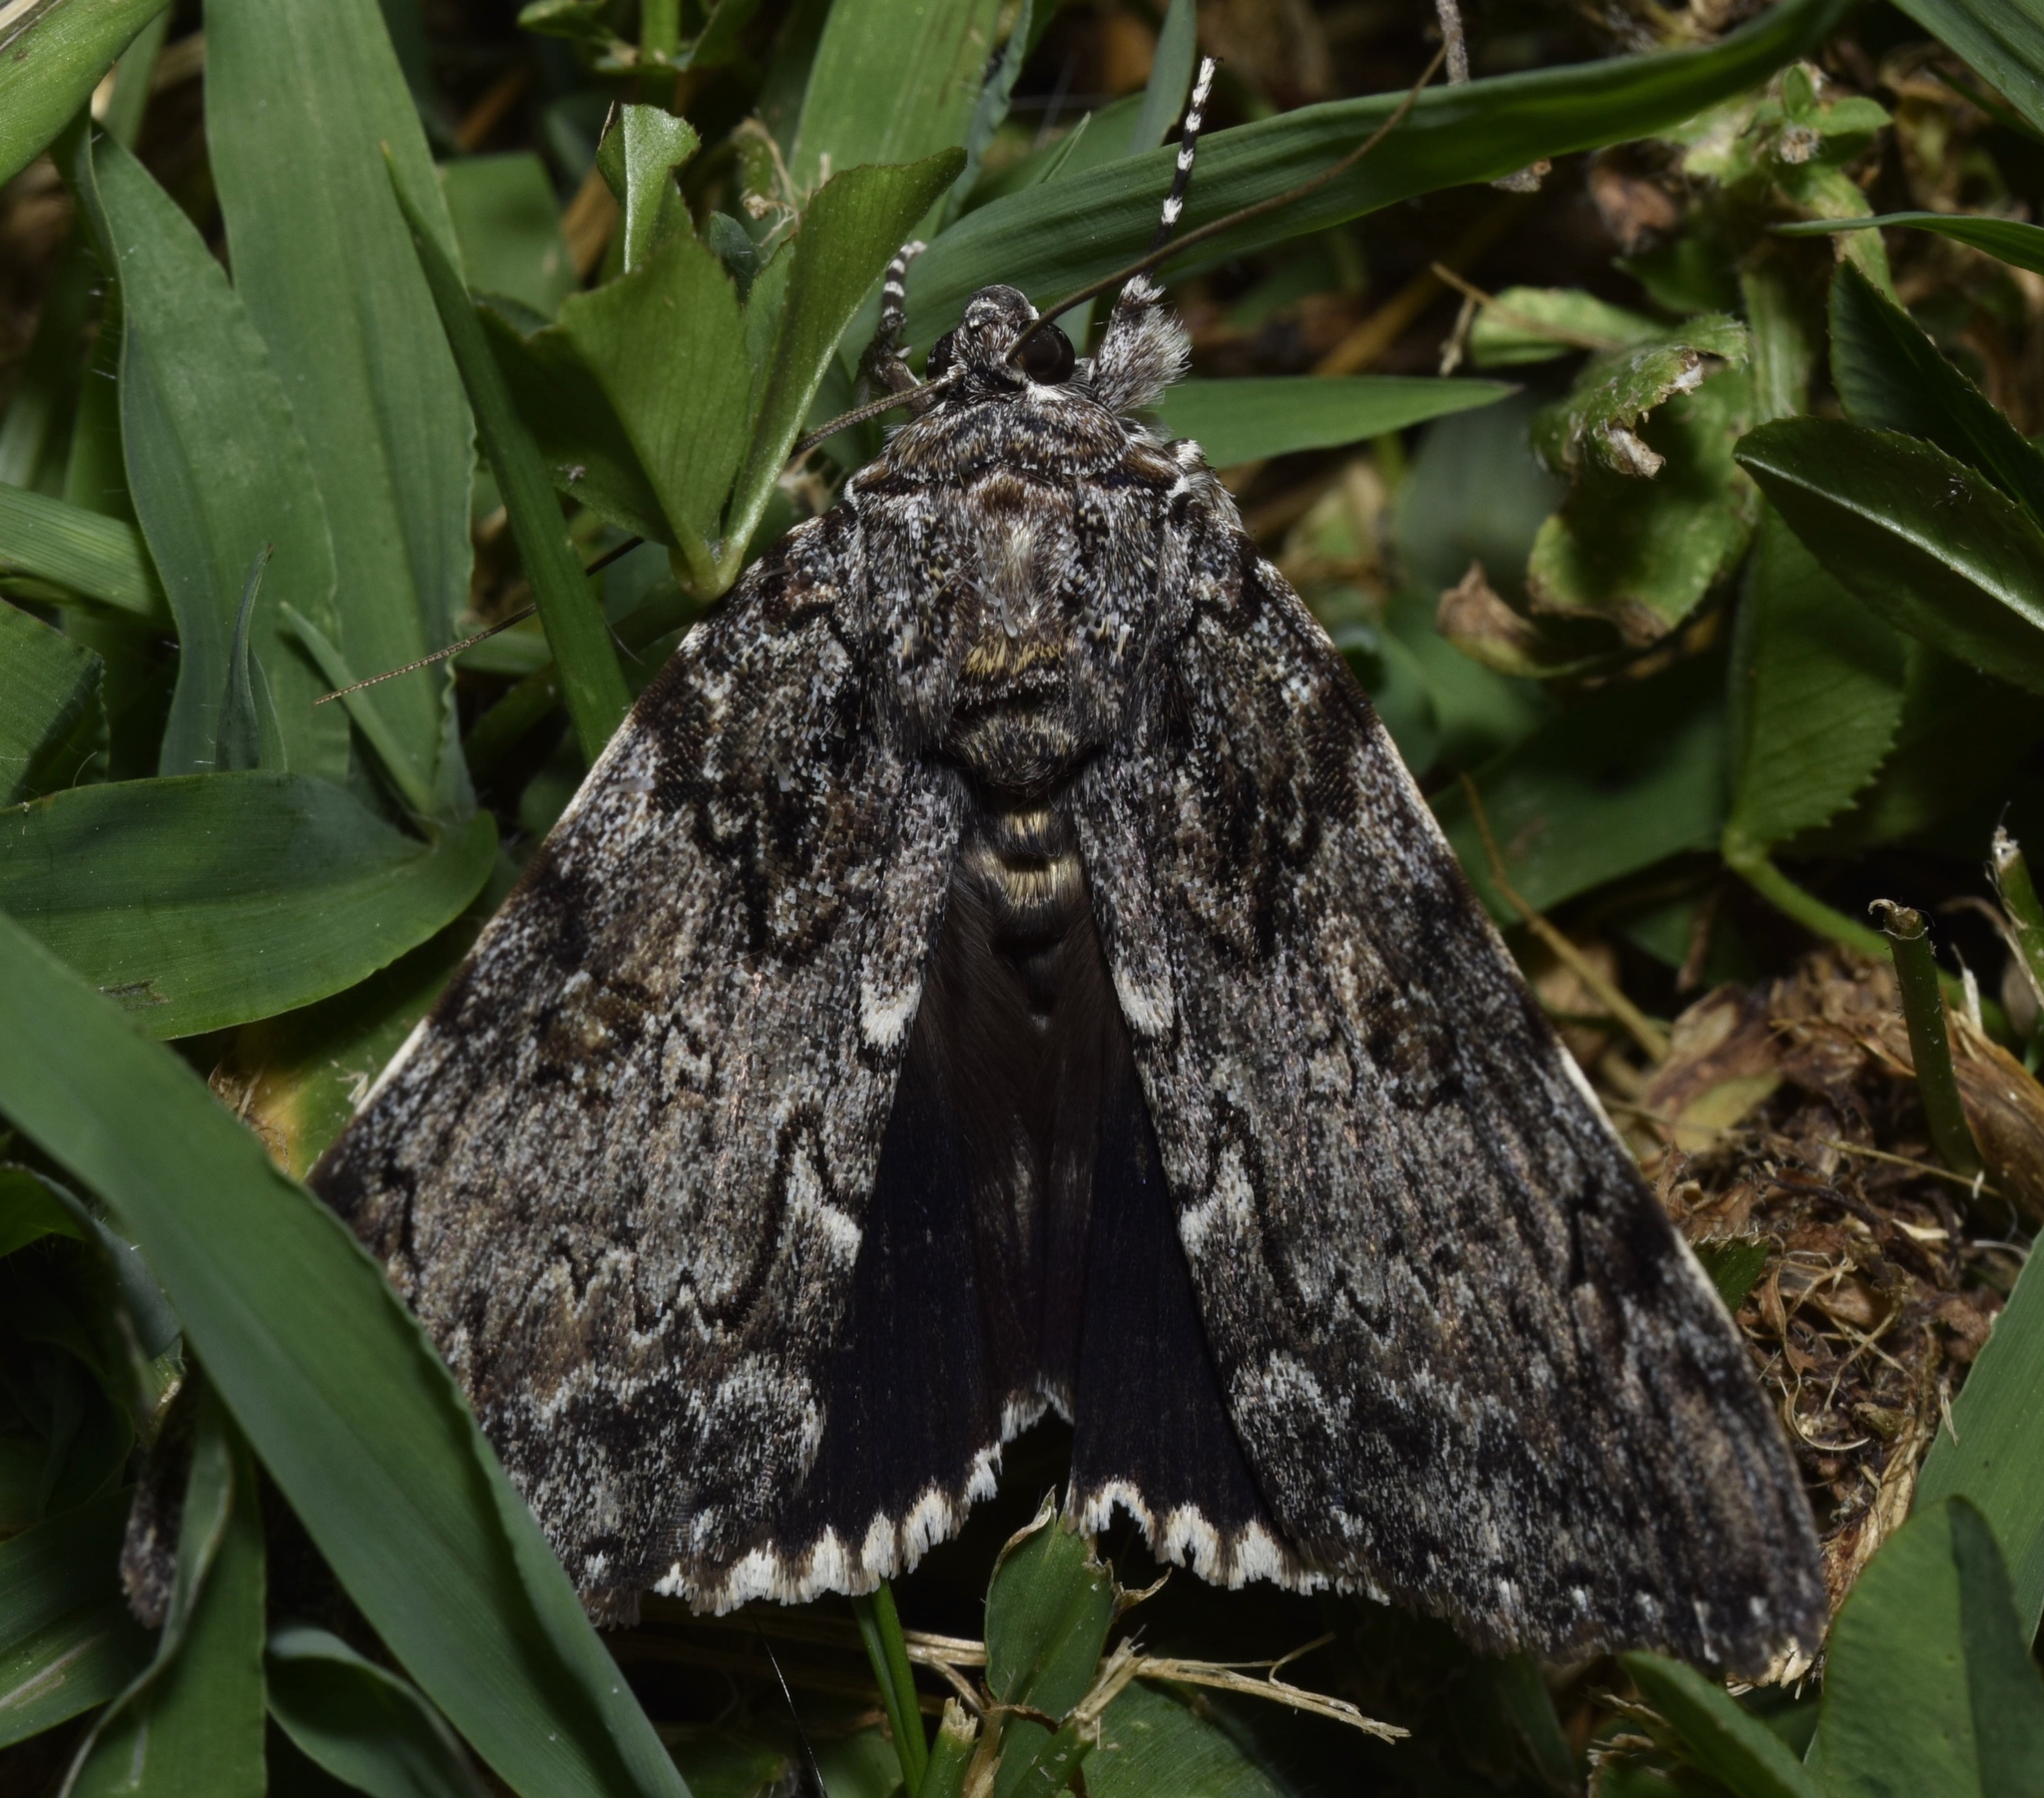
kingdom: Animalia
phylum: Arthropoda
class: Insecta
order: Lepidoptera
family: Erebidae
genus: Catocala
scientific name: Catocala lacrymosa
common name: Tearful underwing
